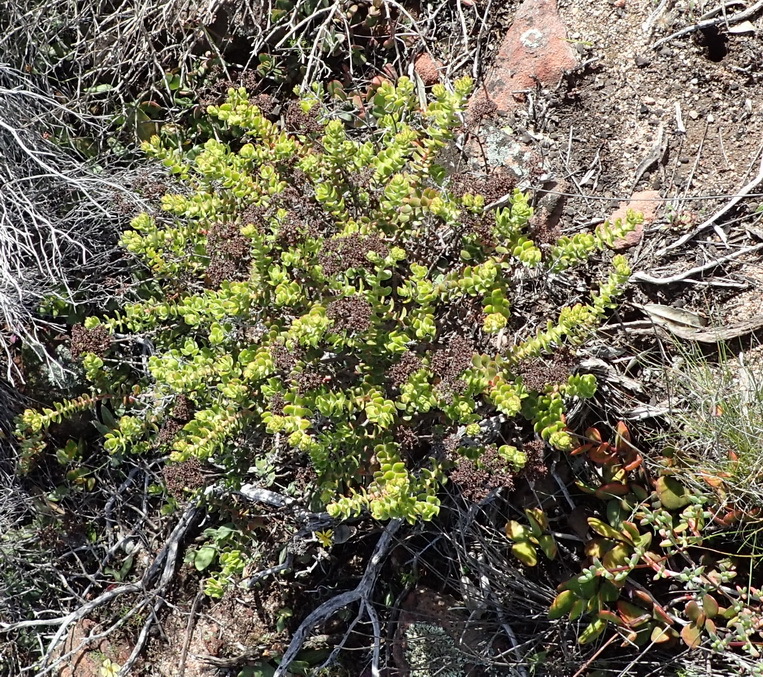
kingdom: Plantae
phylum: Tracheophyta
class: Magnoliopsida
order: Saxifragales
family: Crassulaceae
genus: Crassula
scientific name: Crassula undulata
